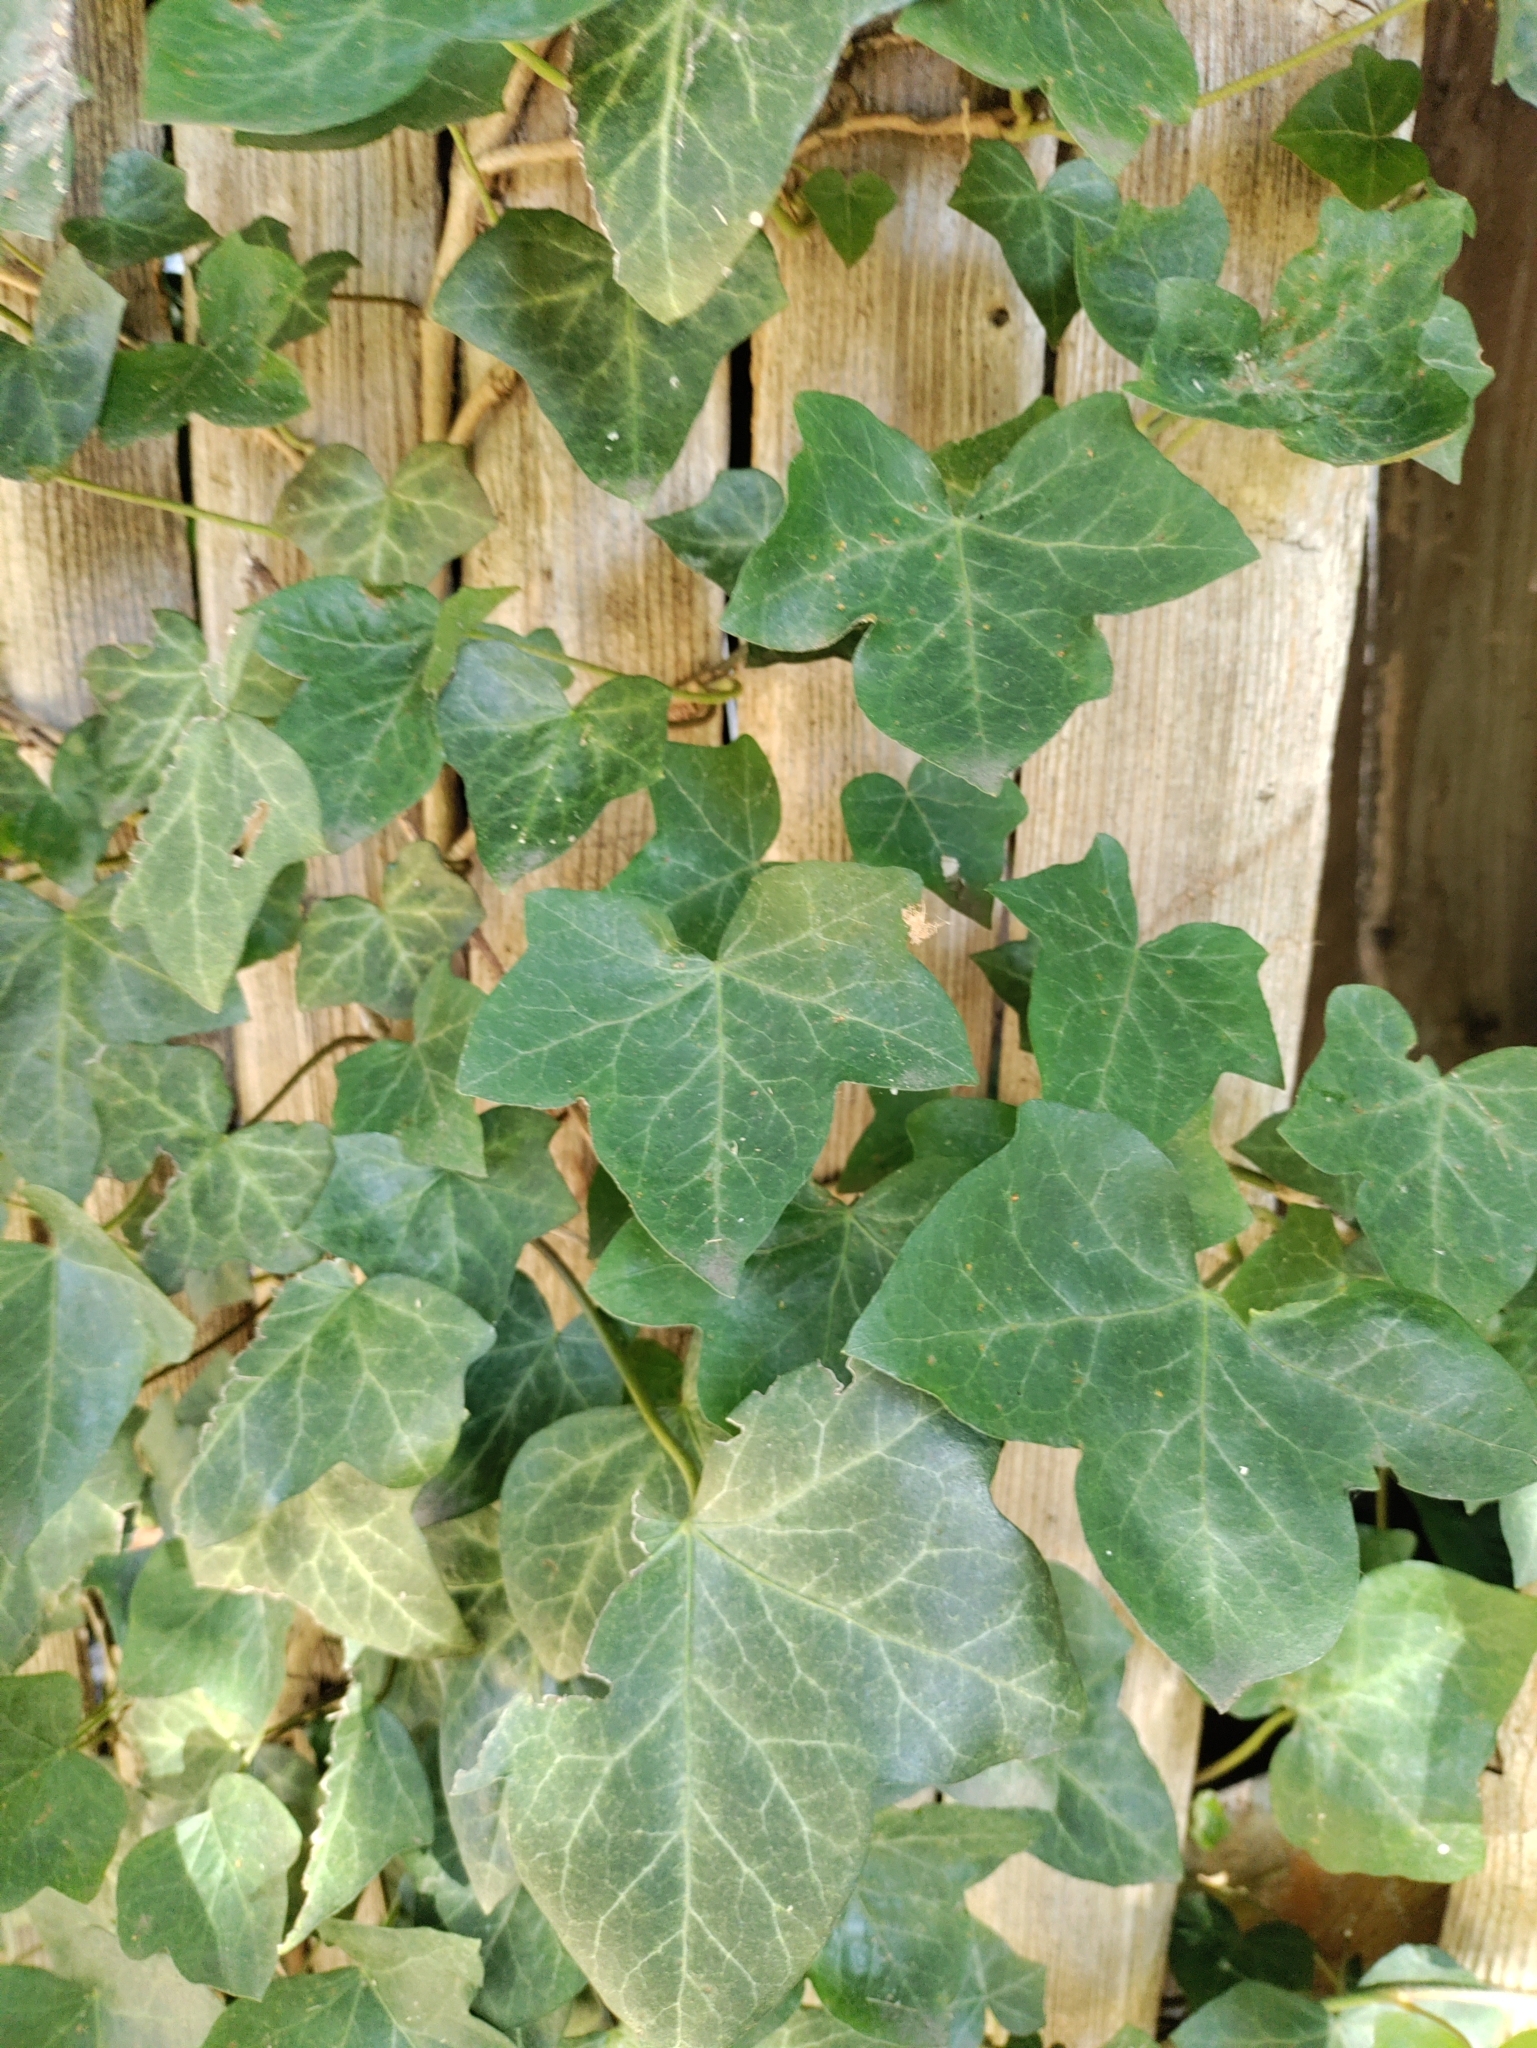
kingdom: Plantae
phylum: Tracheophyta
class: Magnoliopsida
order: Apiales
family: Araliaceae
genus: Hedera
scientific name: Hedera helix
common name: Ivy
